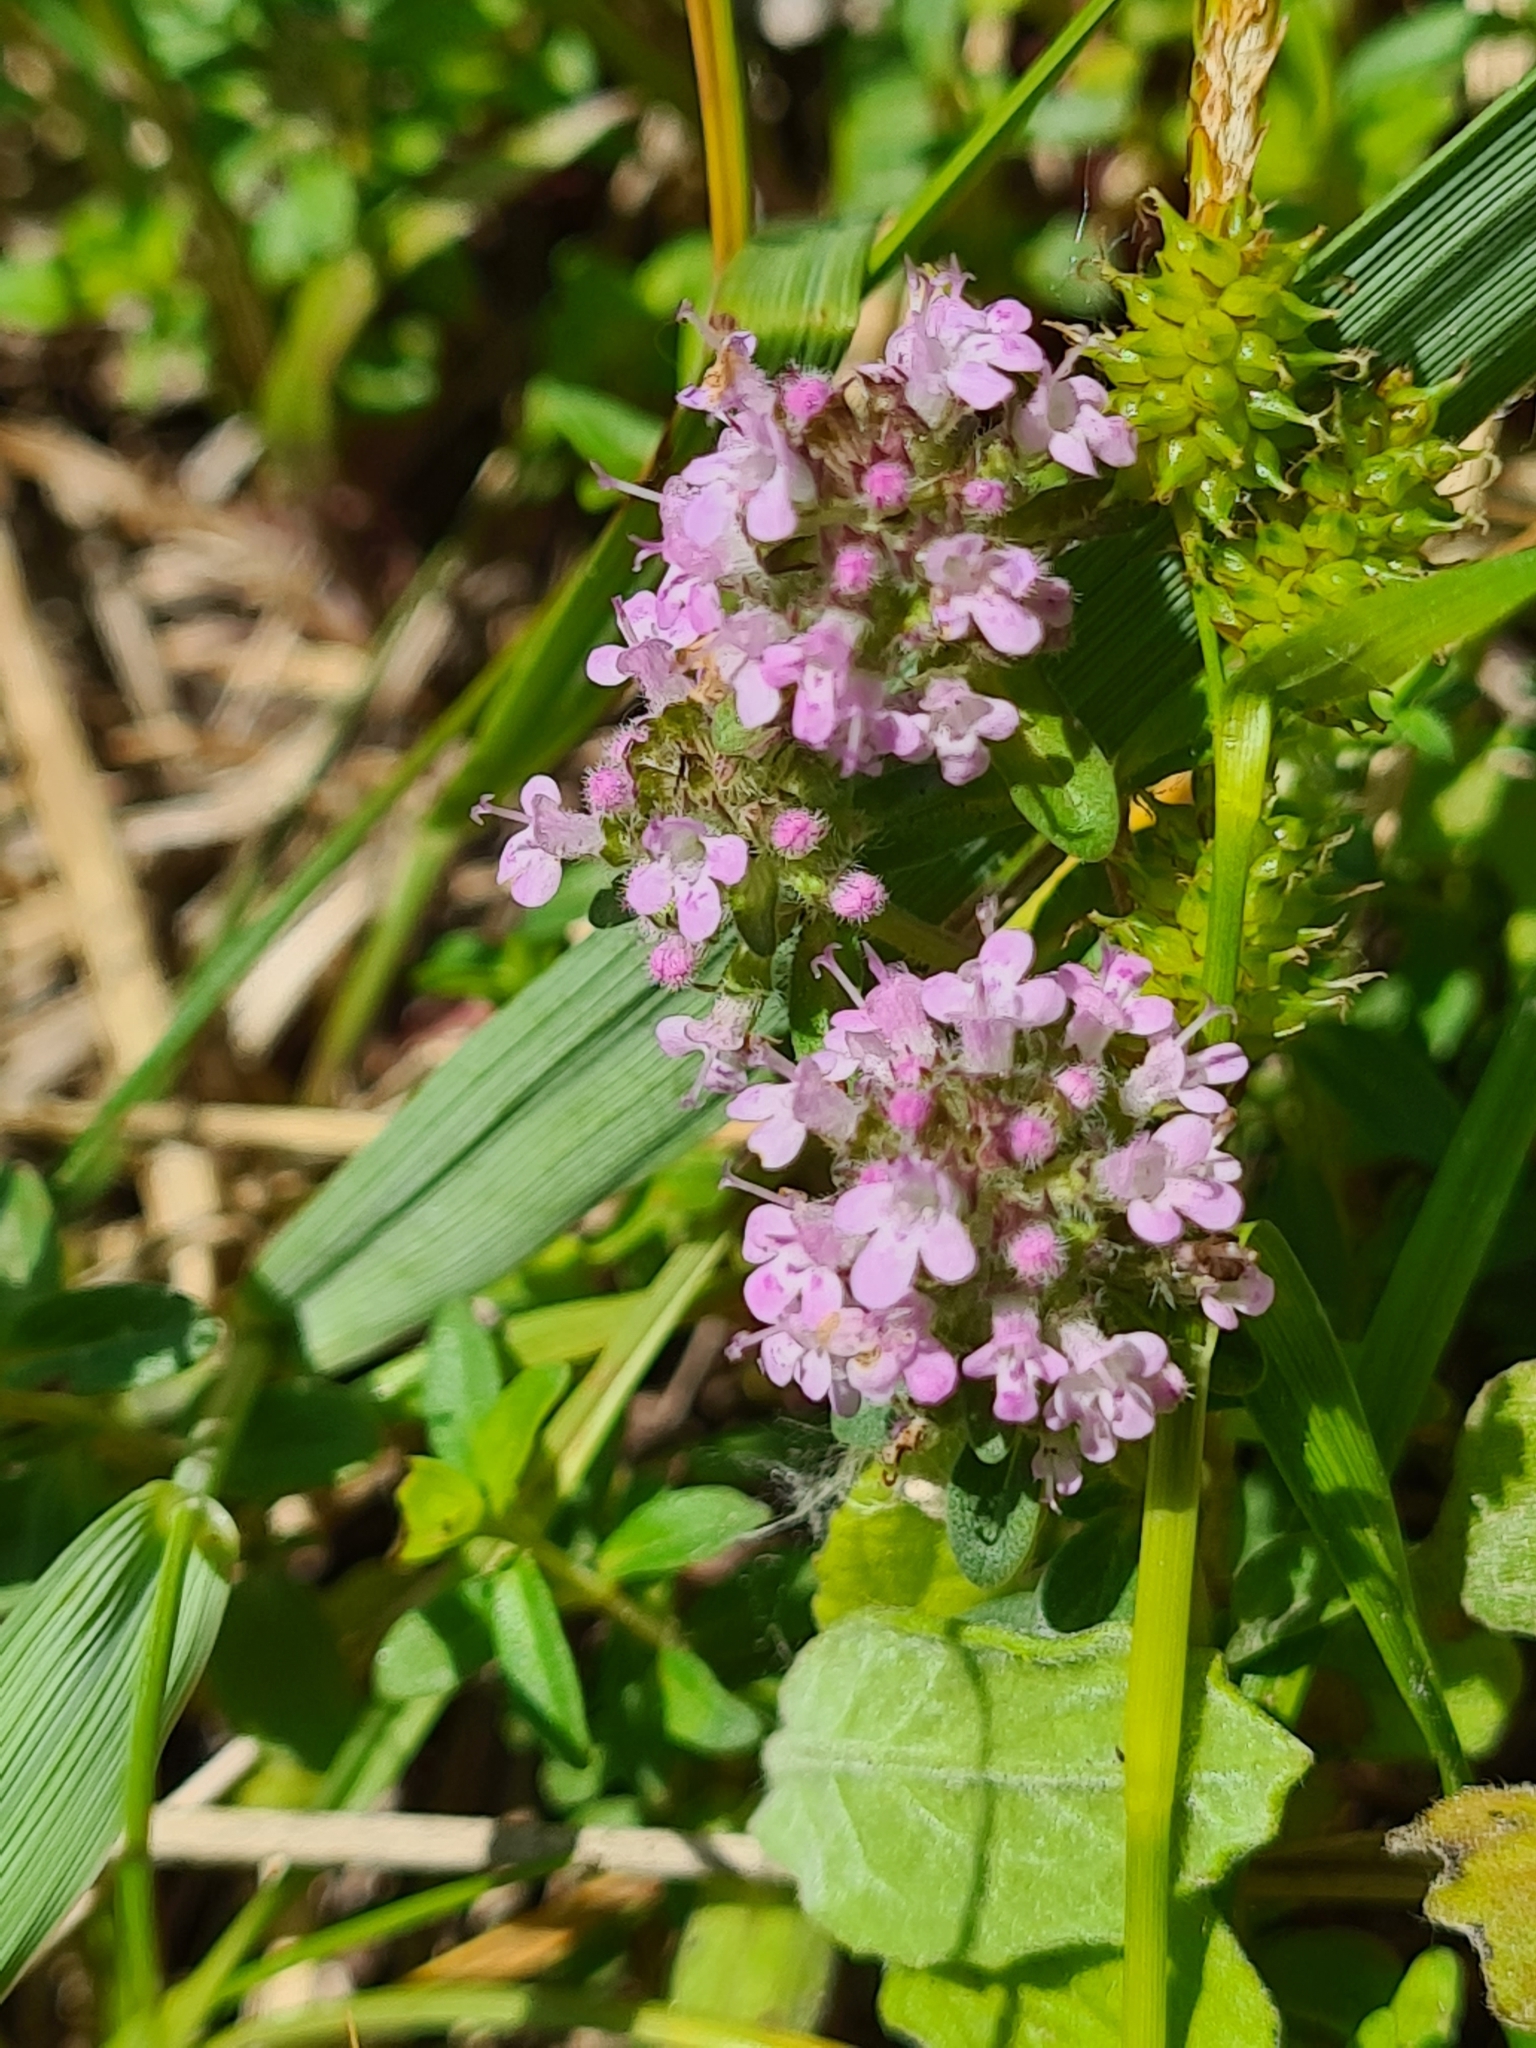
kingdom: Plantae
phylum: Tracheophyta
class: Magnoliopsida
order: Lamiales
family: Lamiaceae
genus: Thymus
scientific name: Thymus odoratissimus
